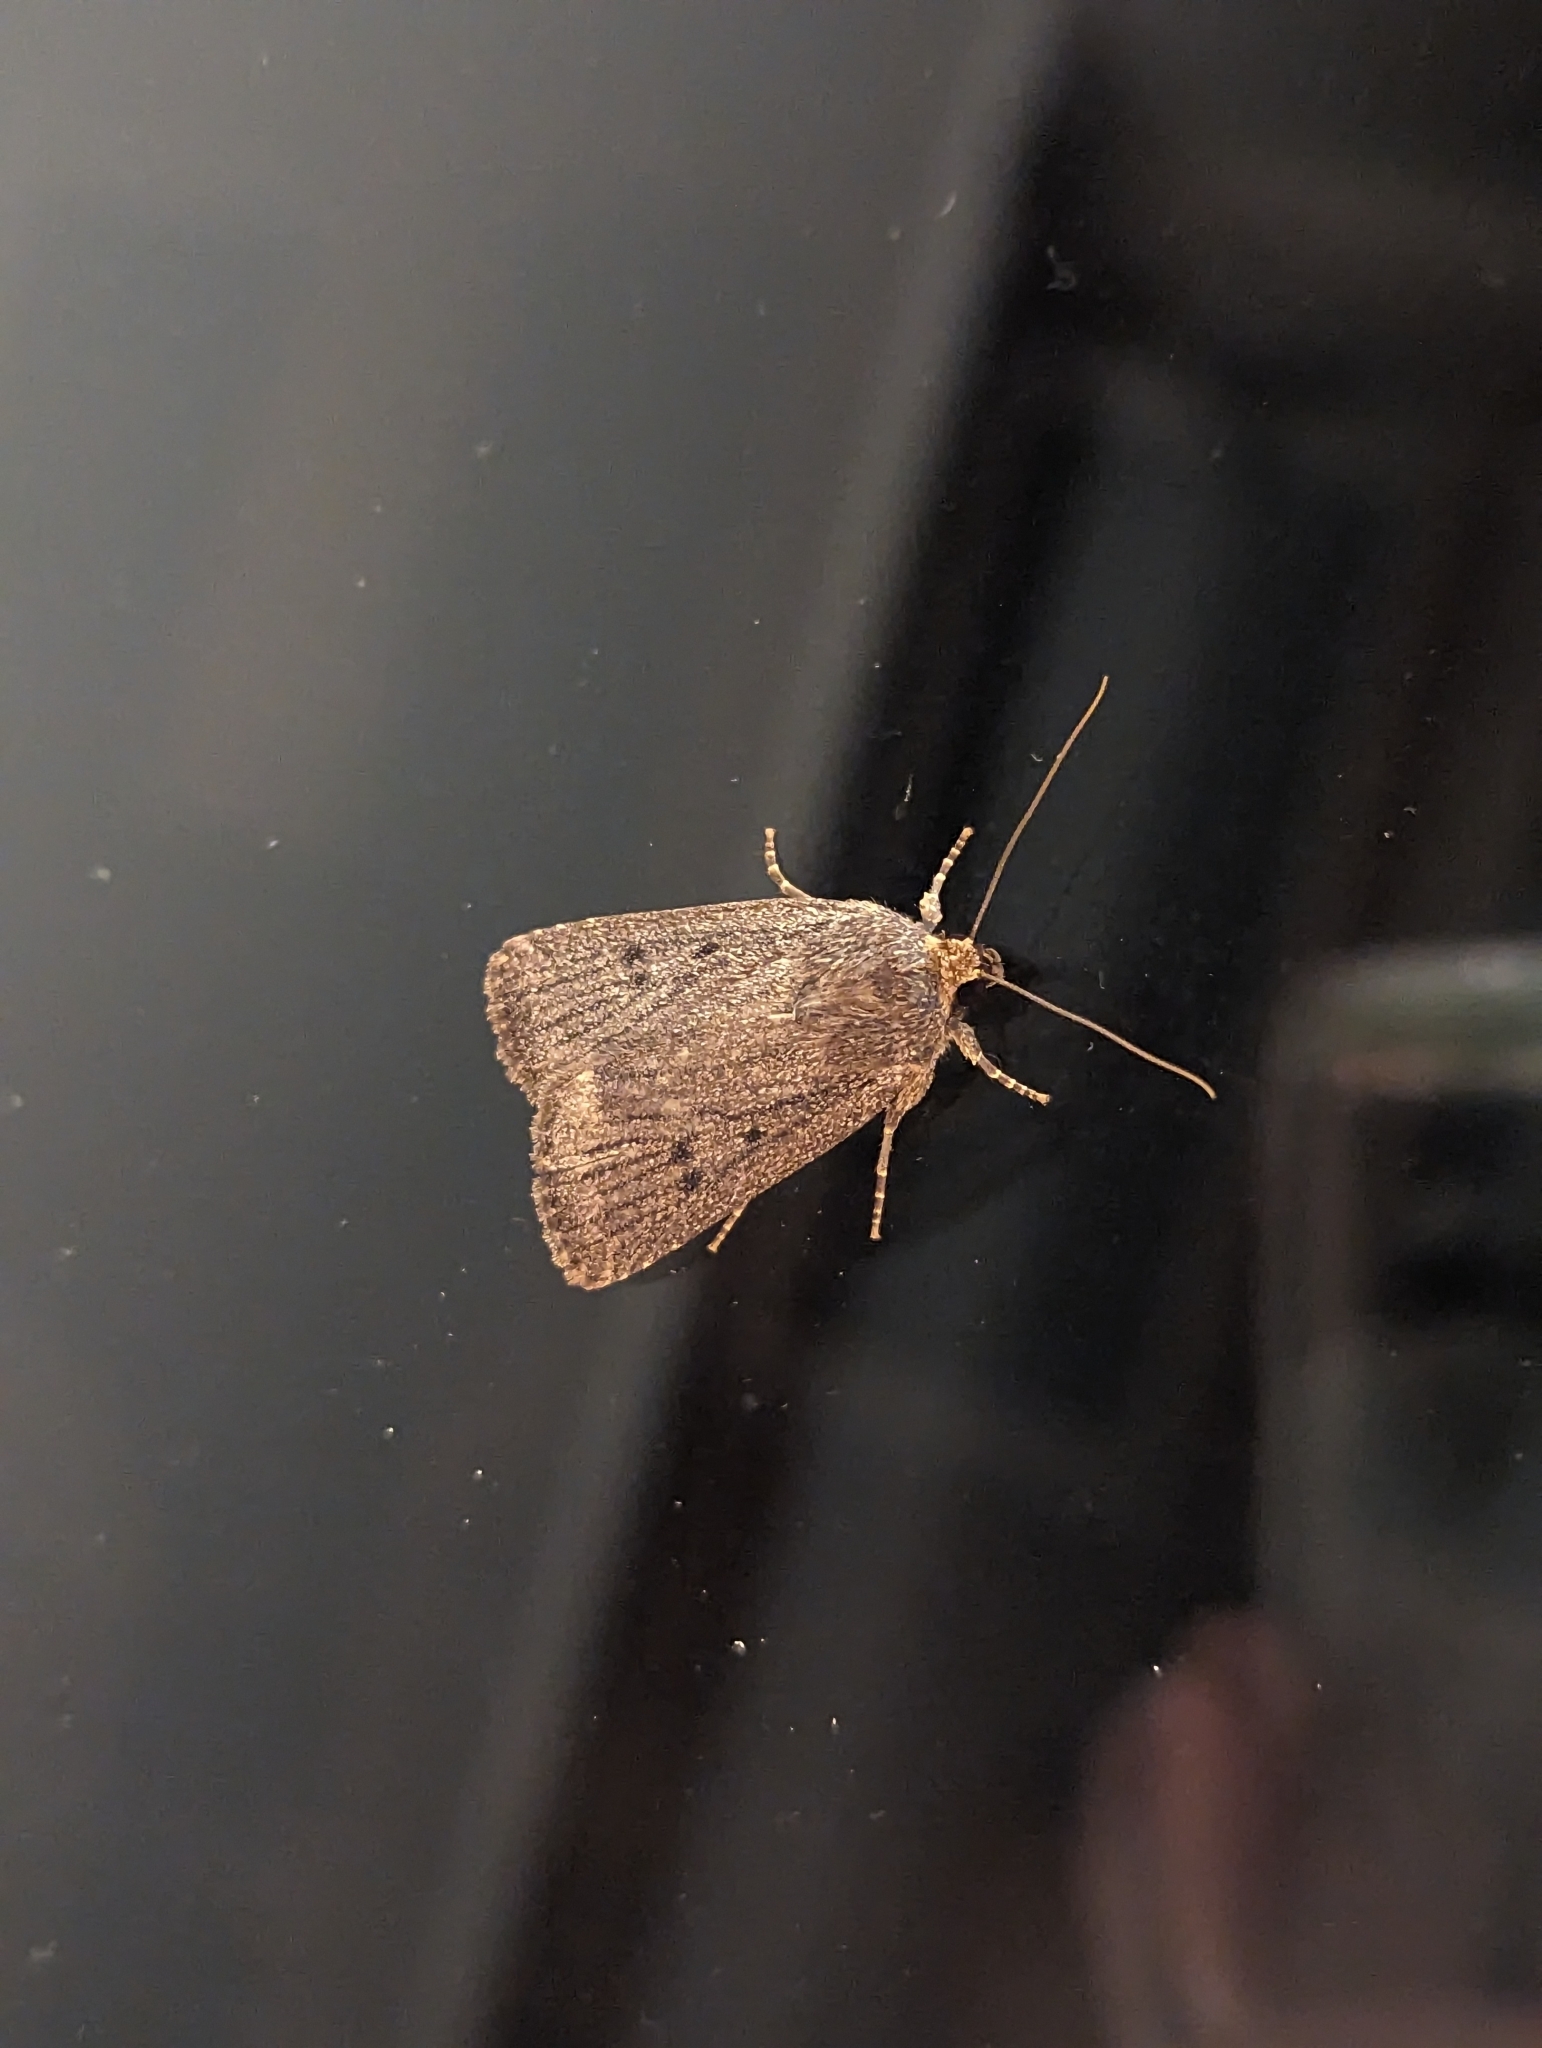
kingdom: Animalia
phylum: Arthropoda
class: Insecta
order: Lepidoptera
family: Noctuidae
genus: Amphipyra
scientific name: Amphipyra tragopoginis
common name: Mouse moth
